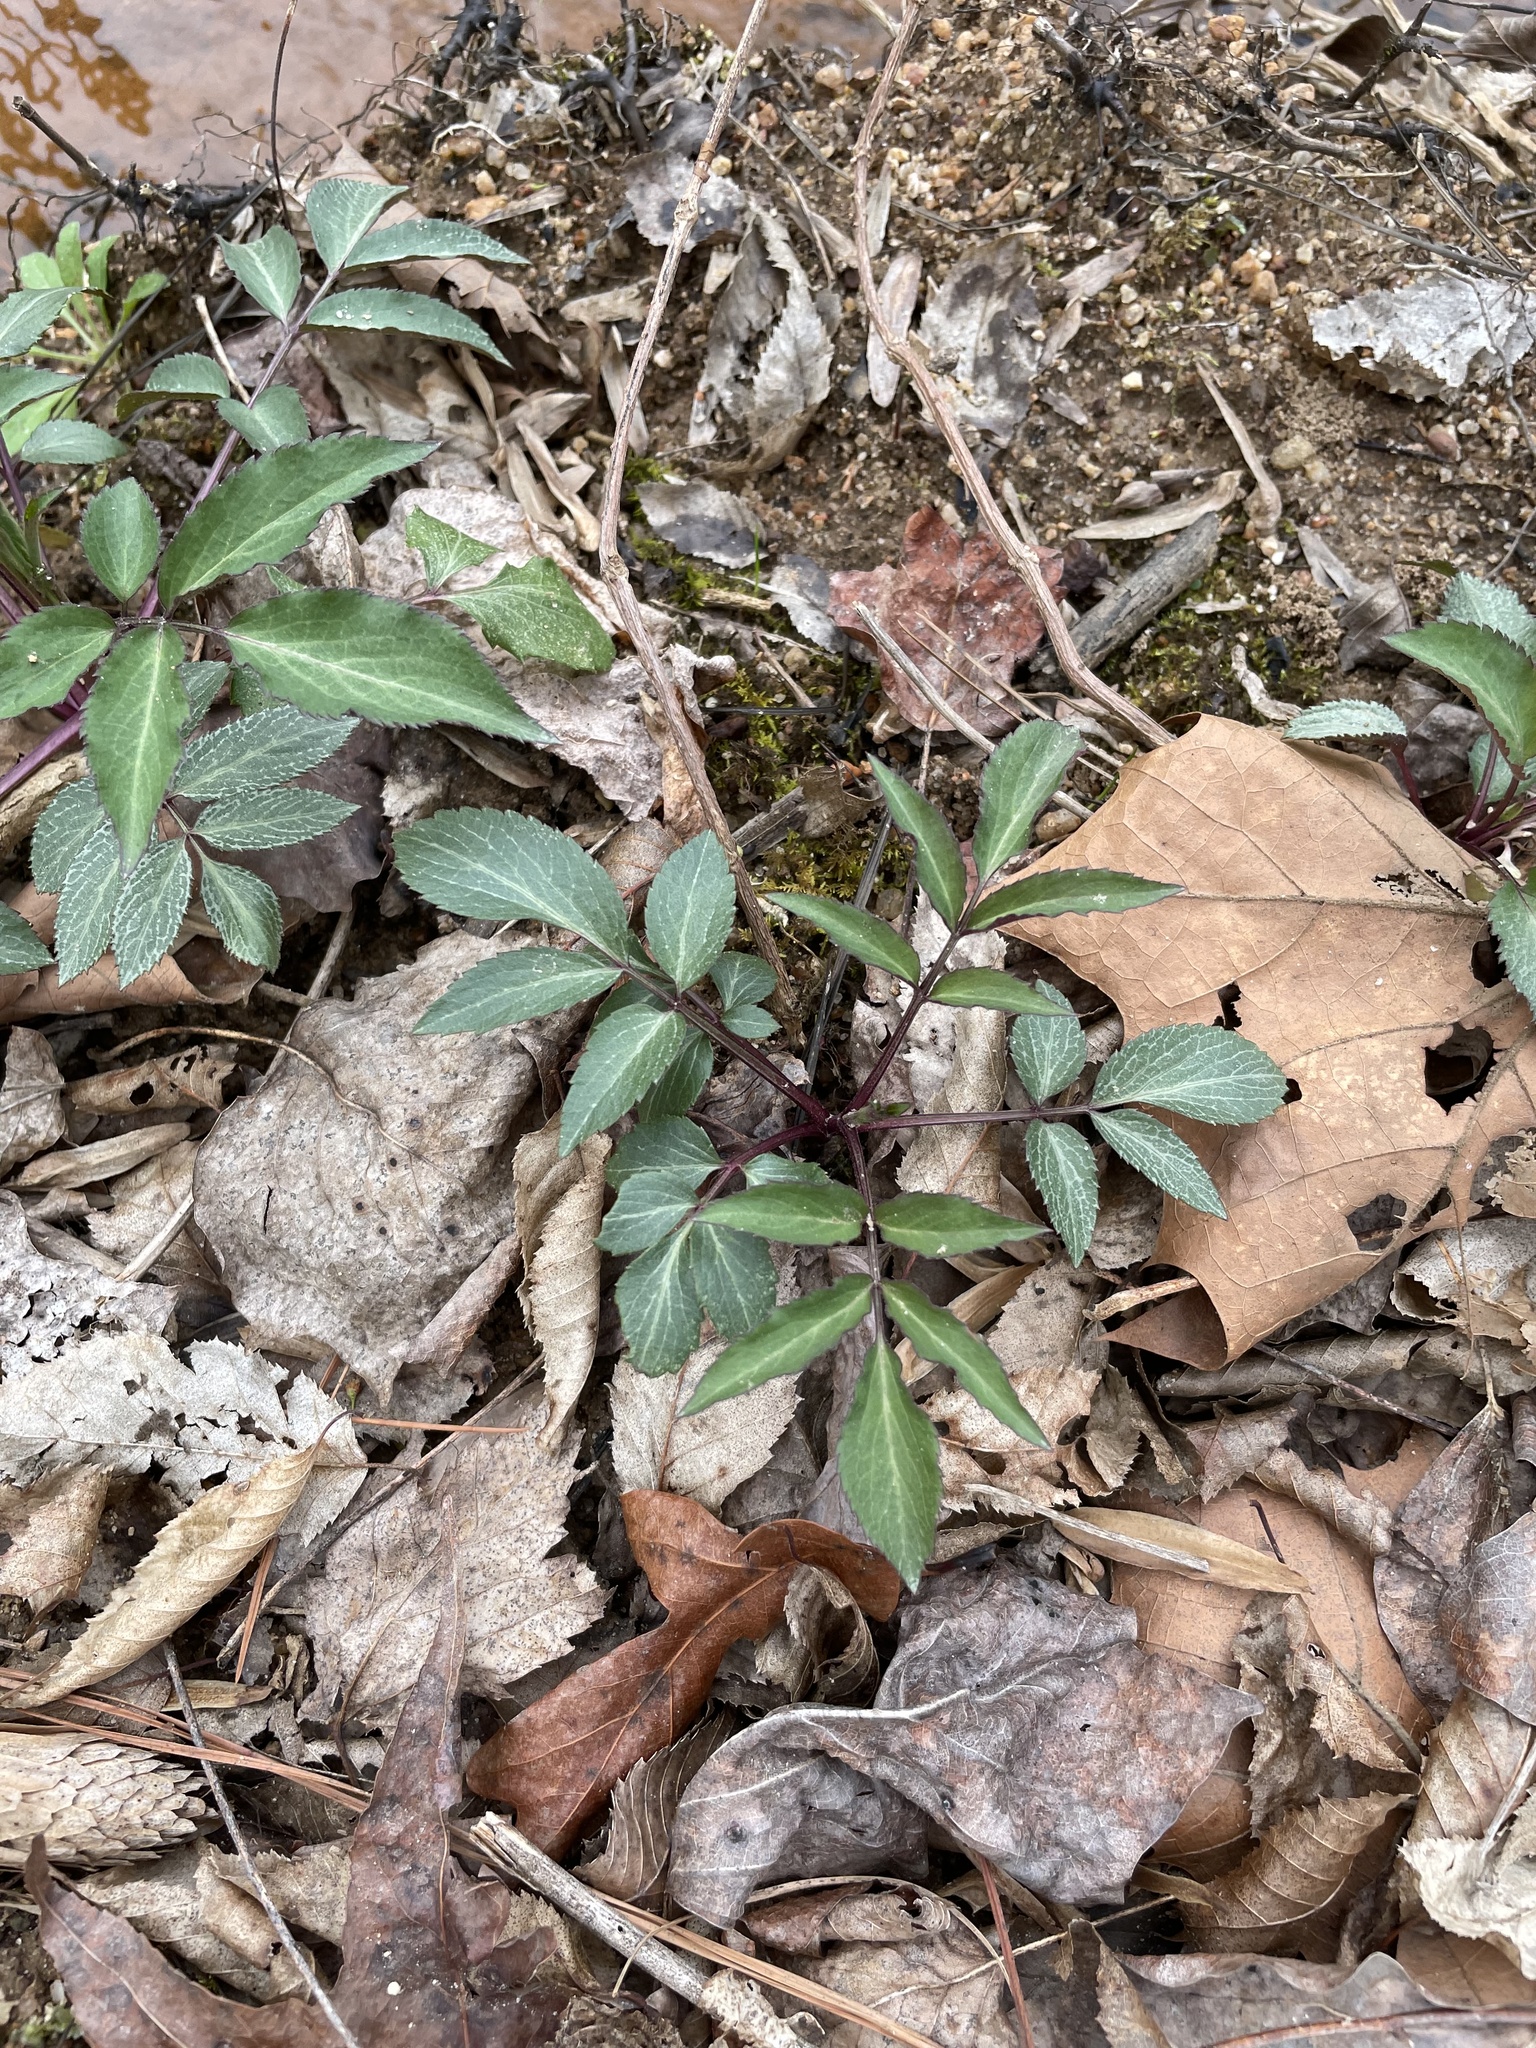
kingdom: Plantae
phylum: Tracheophyta
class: Magnoliopsida
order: Dipsacales
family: Viburnaceae
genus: Sambucus
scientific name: Sambucus canadensis
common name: American elder
